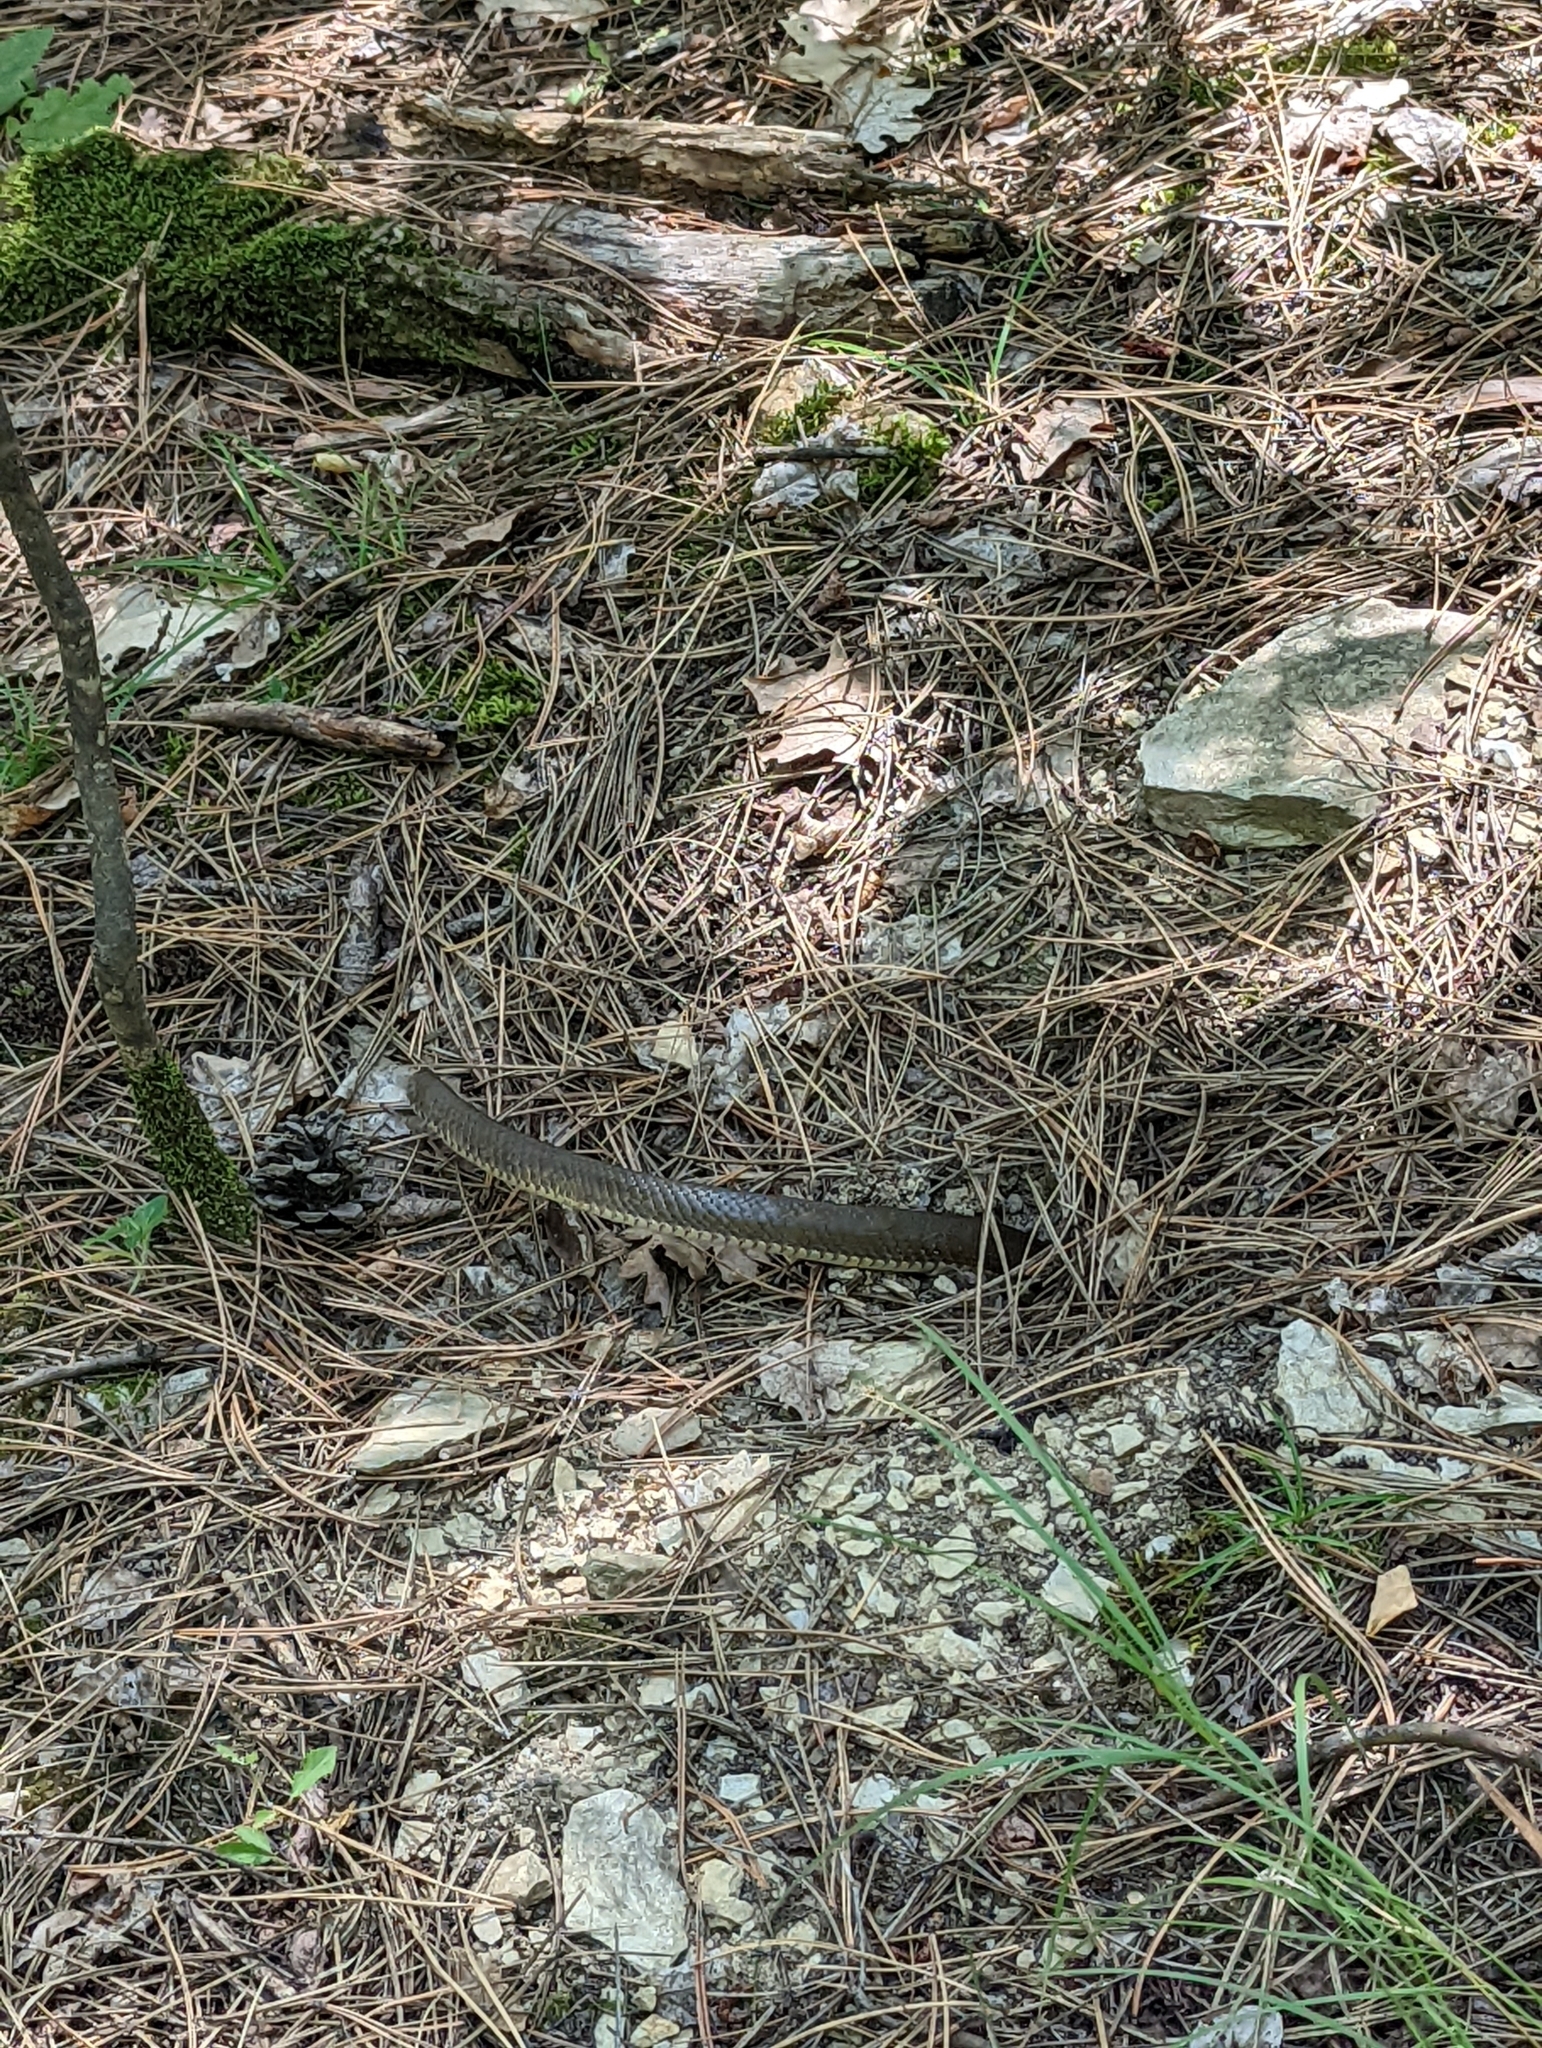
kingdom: Animalia
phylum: Chordata
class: Squamata
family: Colubridae
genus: Zamenis
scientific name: Zamenis longissimus
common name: Aesculapean snake
